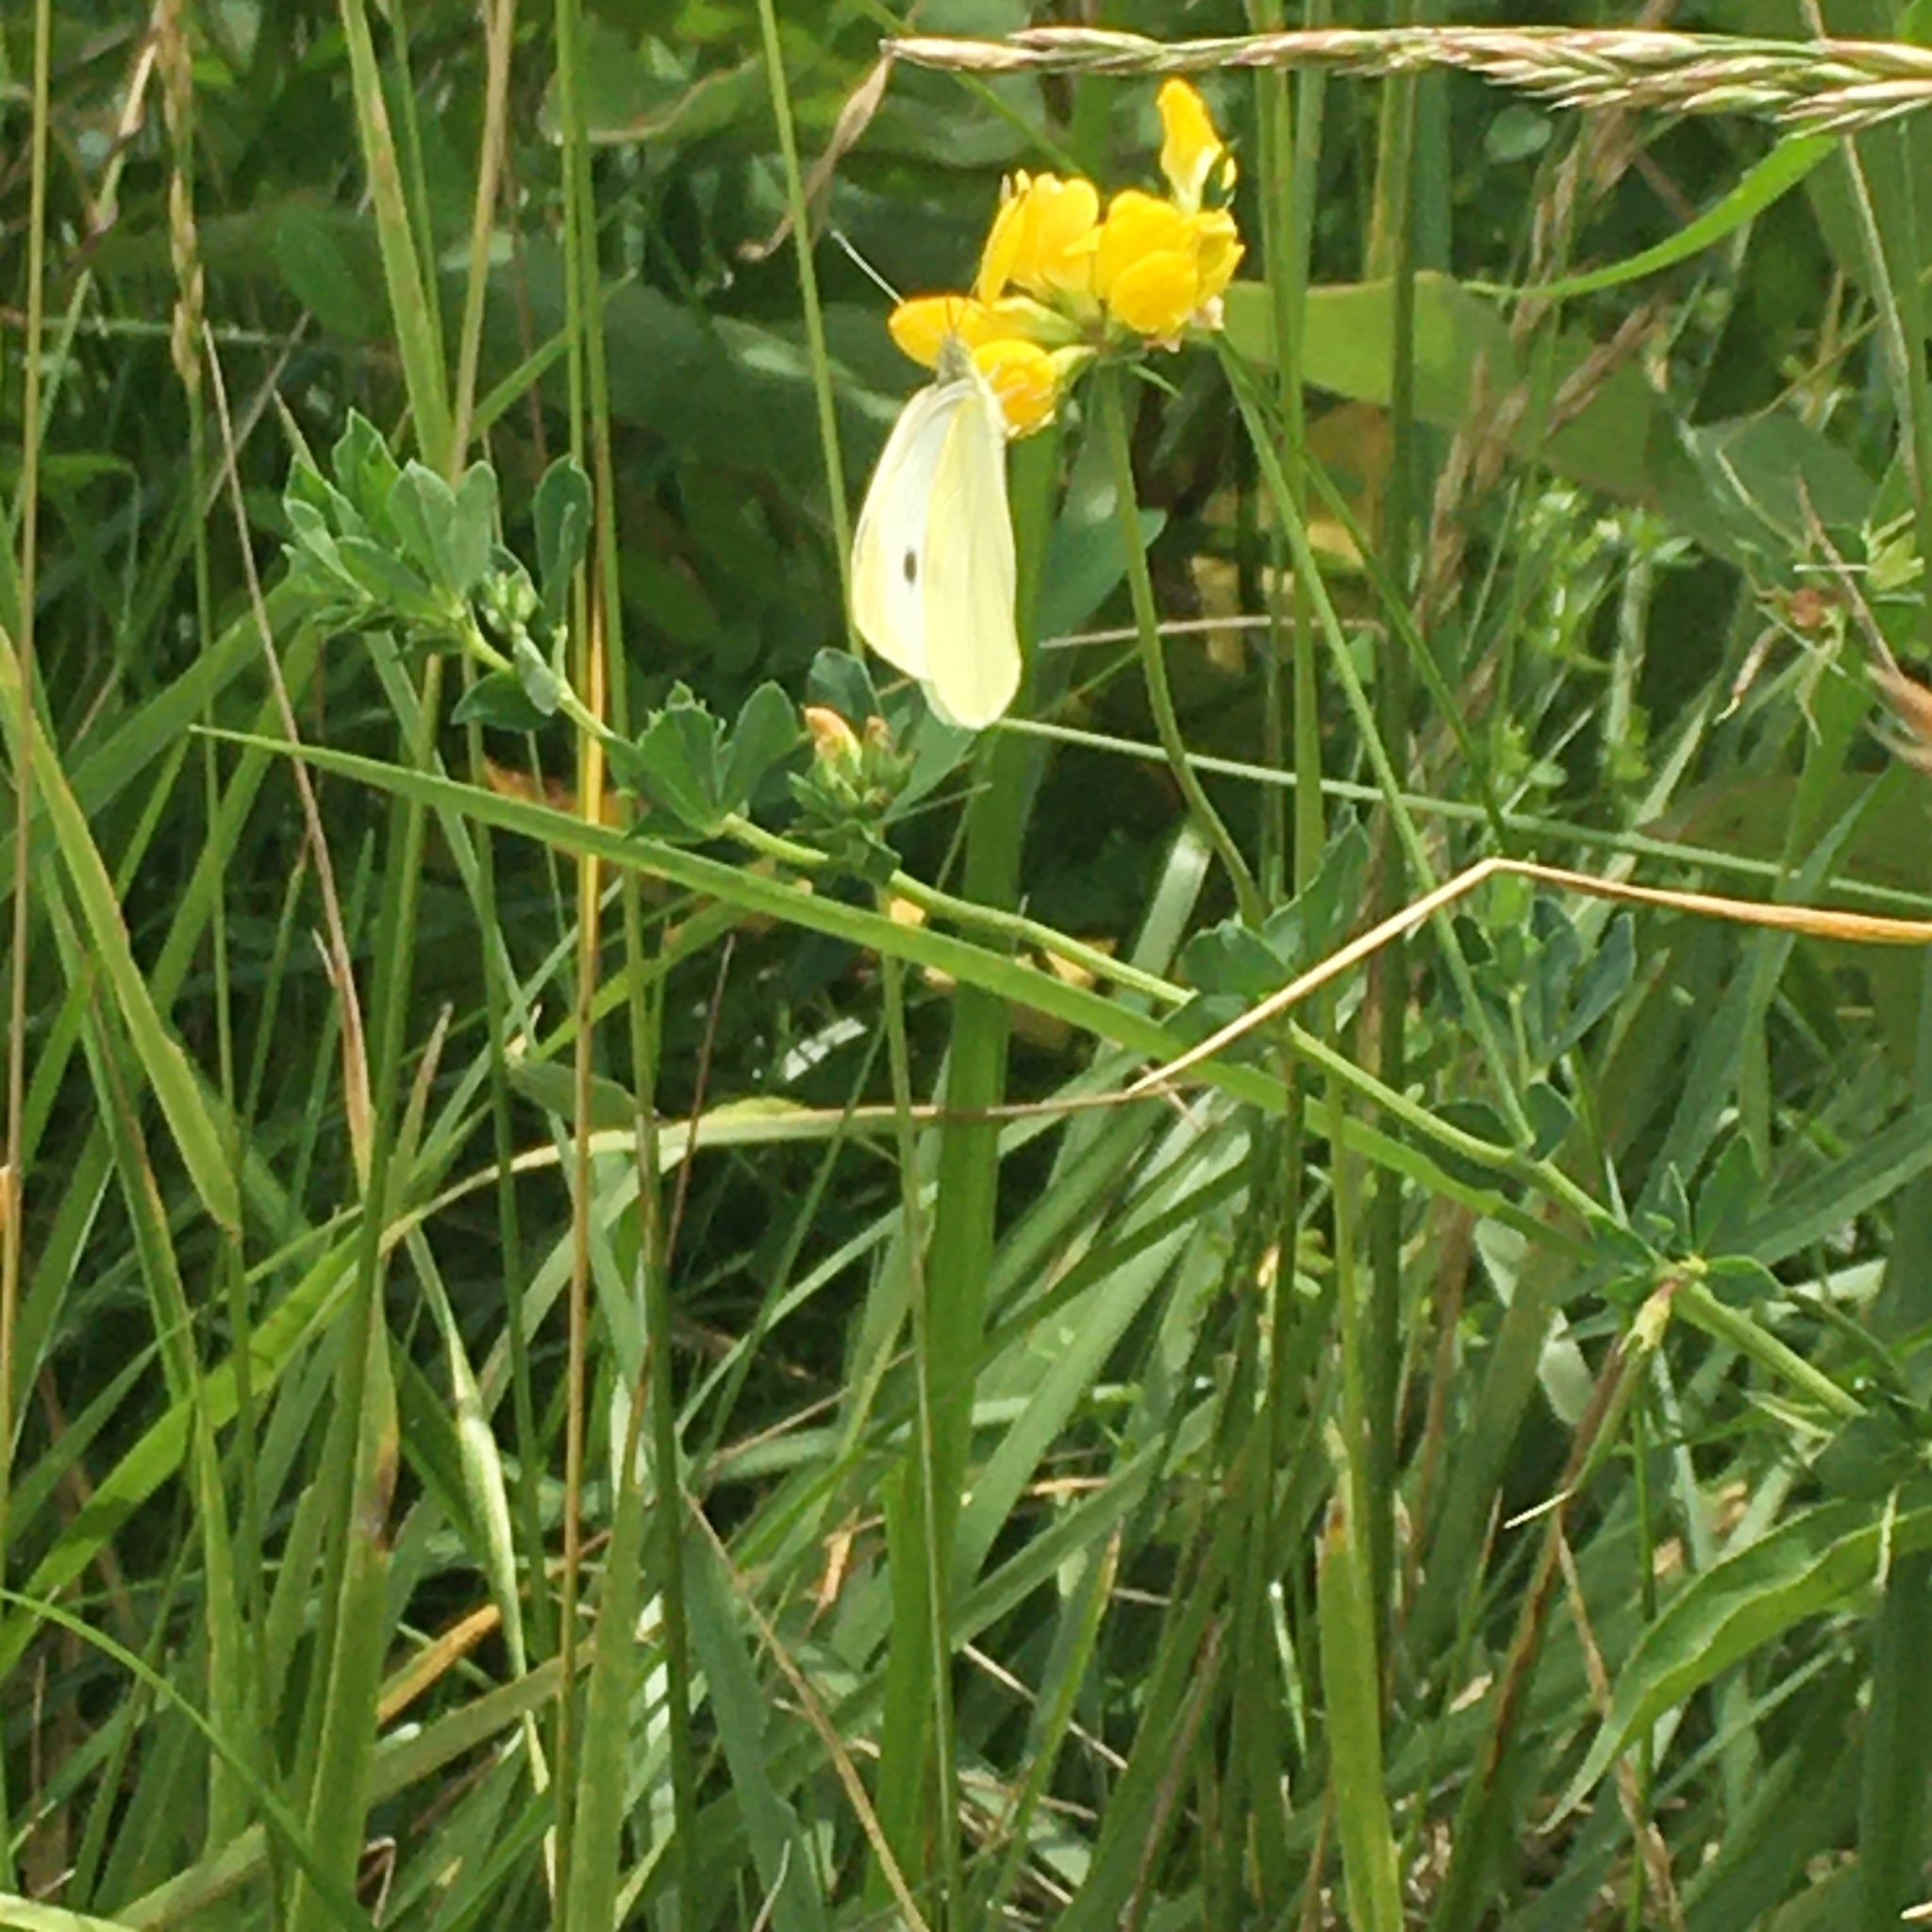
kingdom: Animalia
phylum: Arthropoda
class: Insecta
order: Lepidoptera
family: Pieridae
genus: Pieris
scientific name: Pieris rapae
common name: Small white
